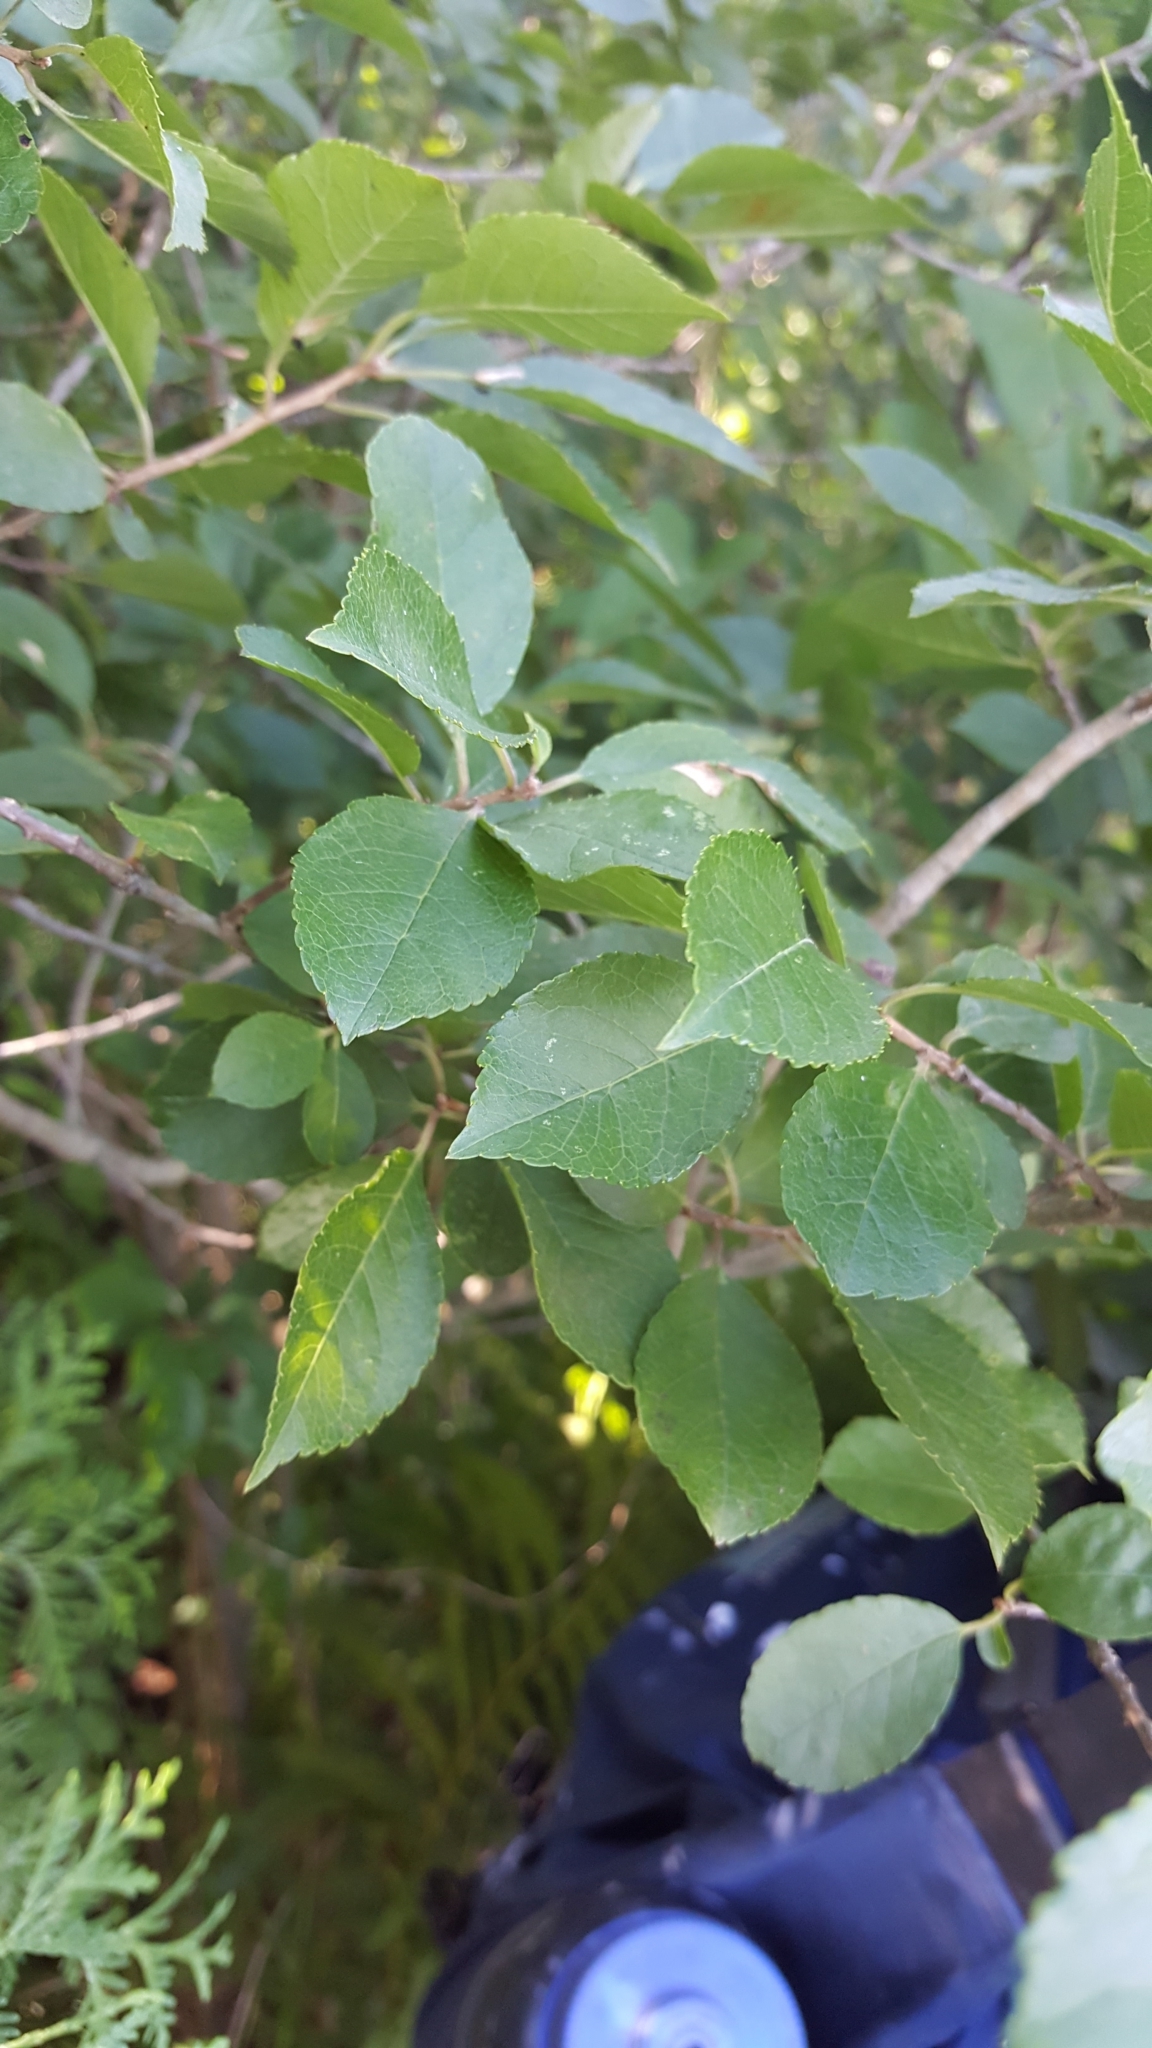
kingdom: Plantae
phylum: Tracheophyta
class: Magnoliopsida
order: Aquifoliales
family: Aquifoliaceae
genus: Ilex
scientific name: Ilex verticillata
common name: Virginia winterberry
